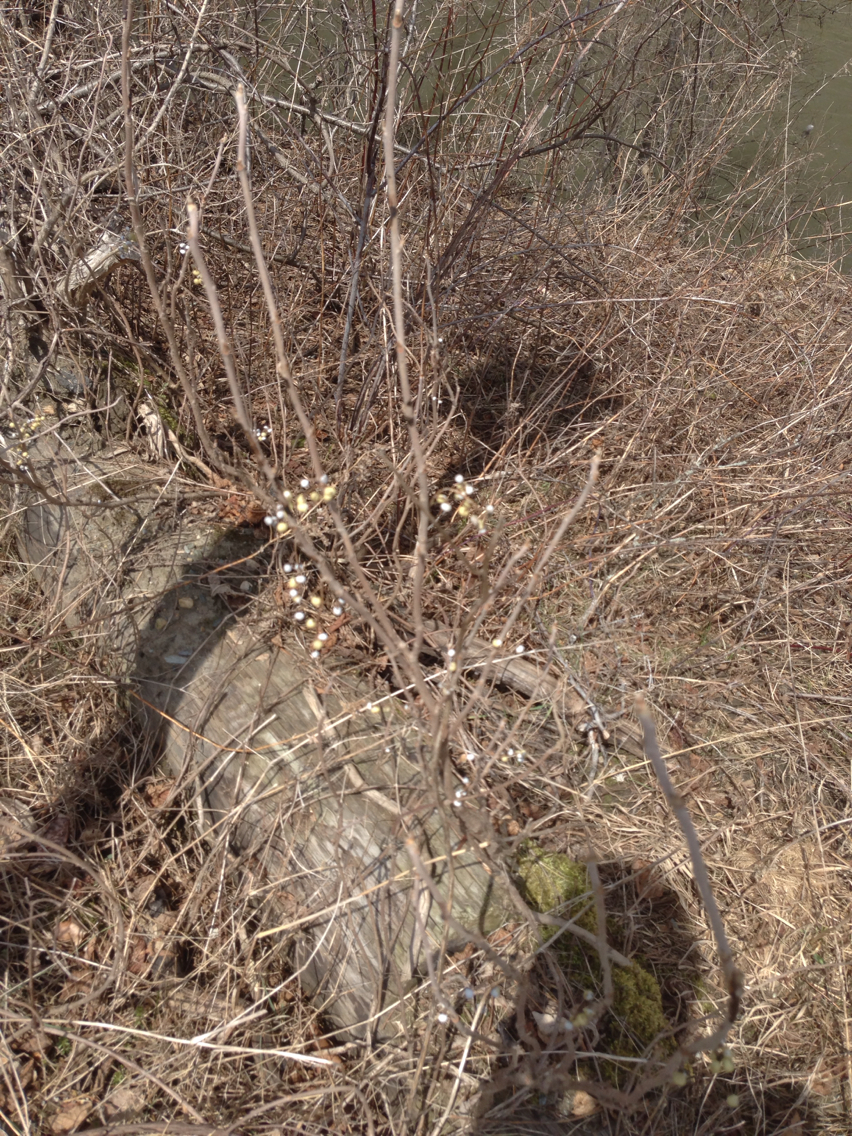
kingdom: Plantae
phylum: Tracheophyta
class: Magnoliopsida
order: Sapindales
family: Anacardiaceae
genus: Toxicodendron
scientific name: Toxicodendron radicans
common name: Poison ivy
